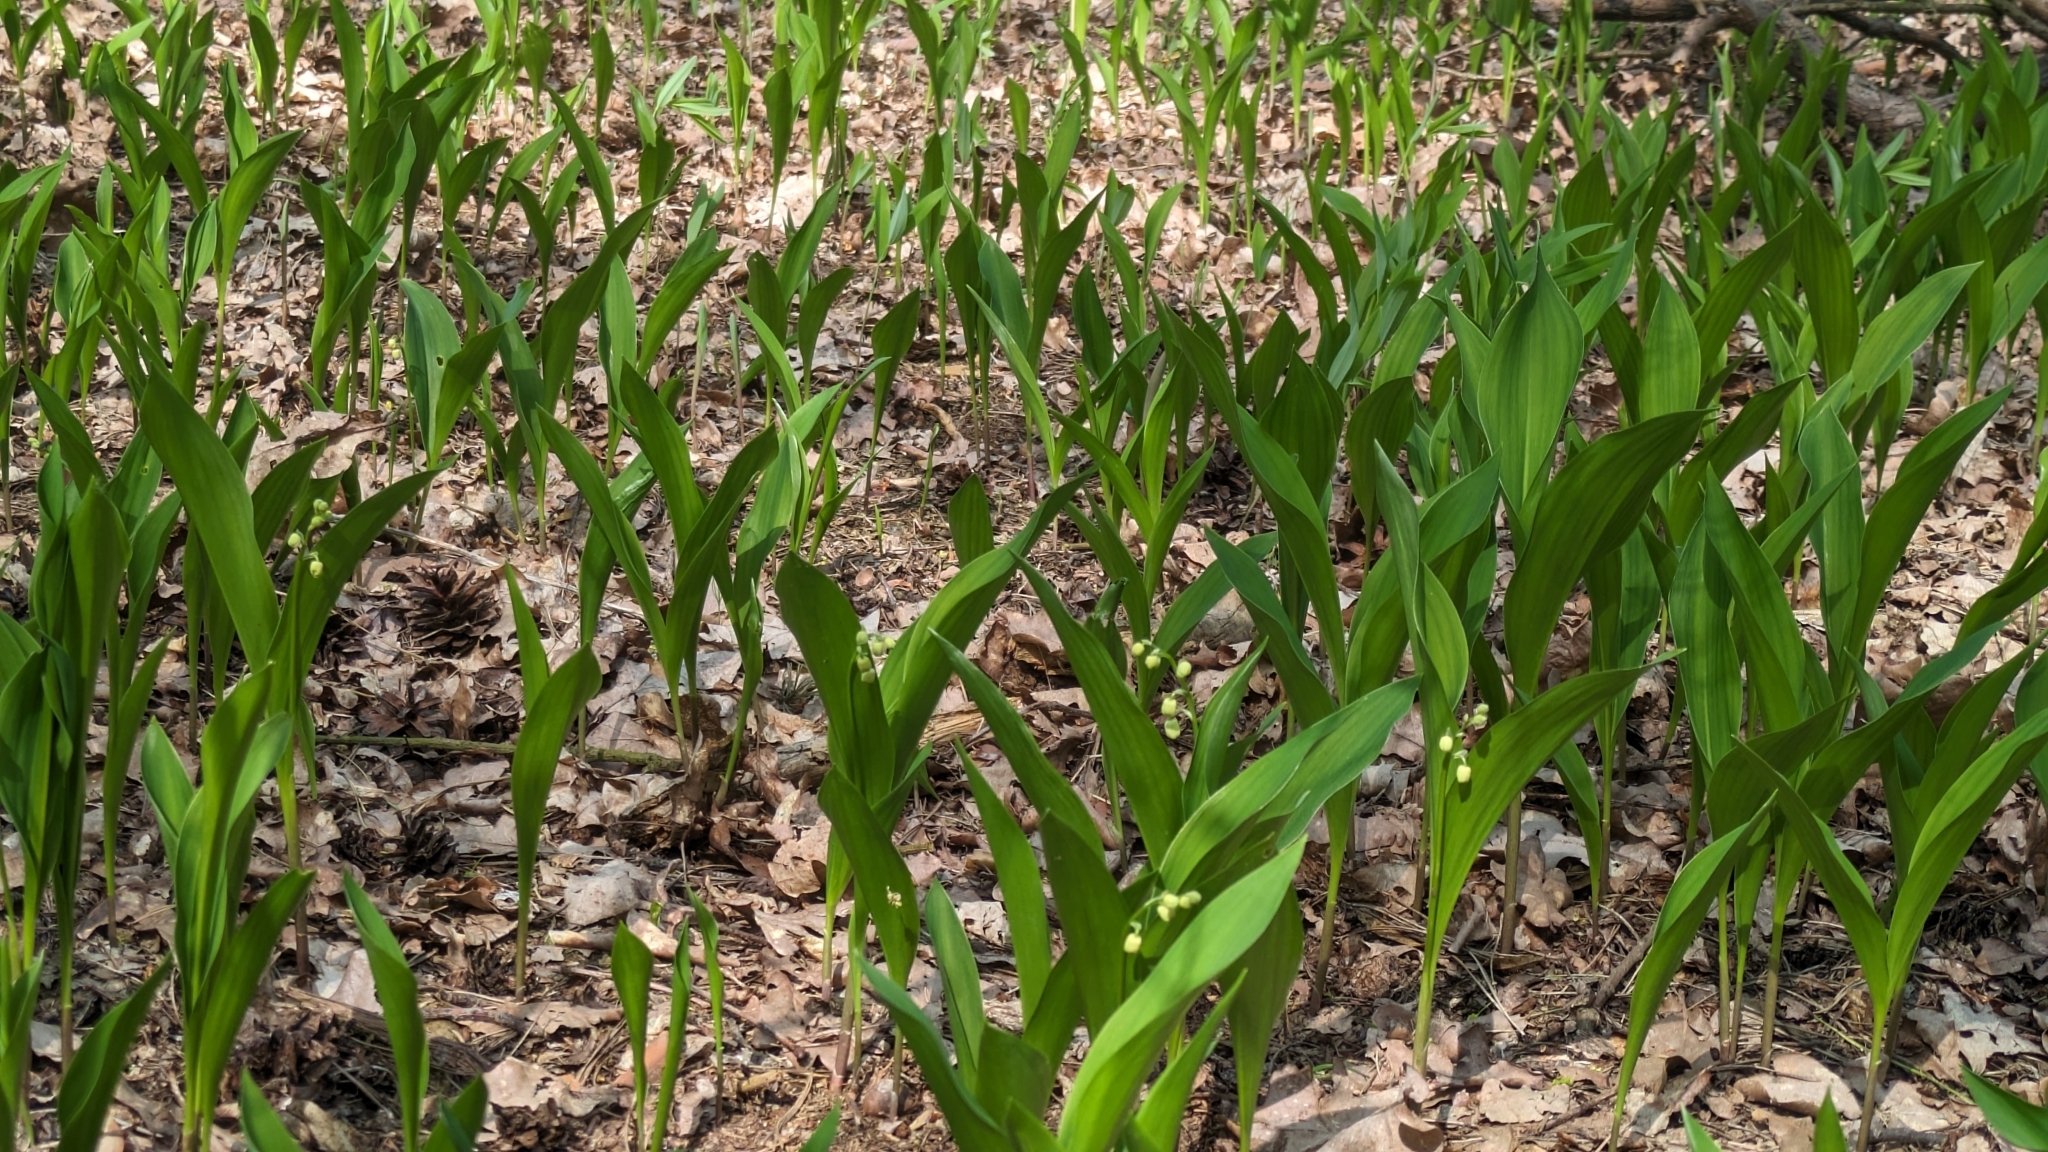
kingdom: Plantae
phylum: Tracheophyta
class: Liliopsida
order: Asparagales
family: Asparagaceae
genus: Convallaria
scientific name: Convallaria majalis
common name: Lily-of-the-valley
